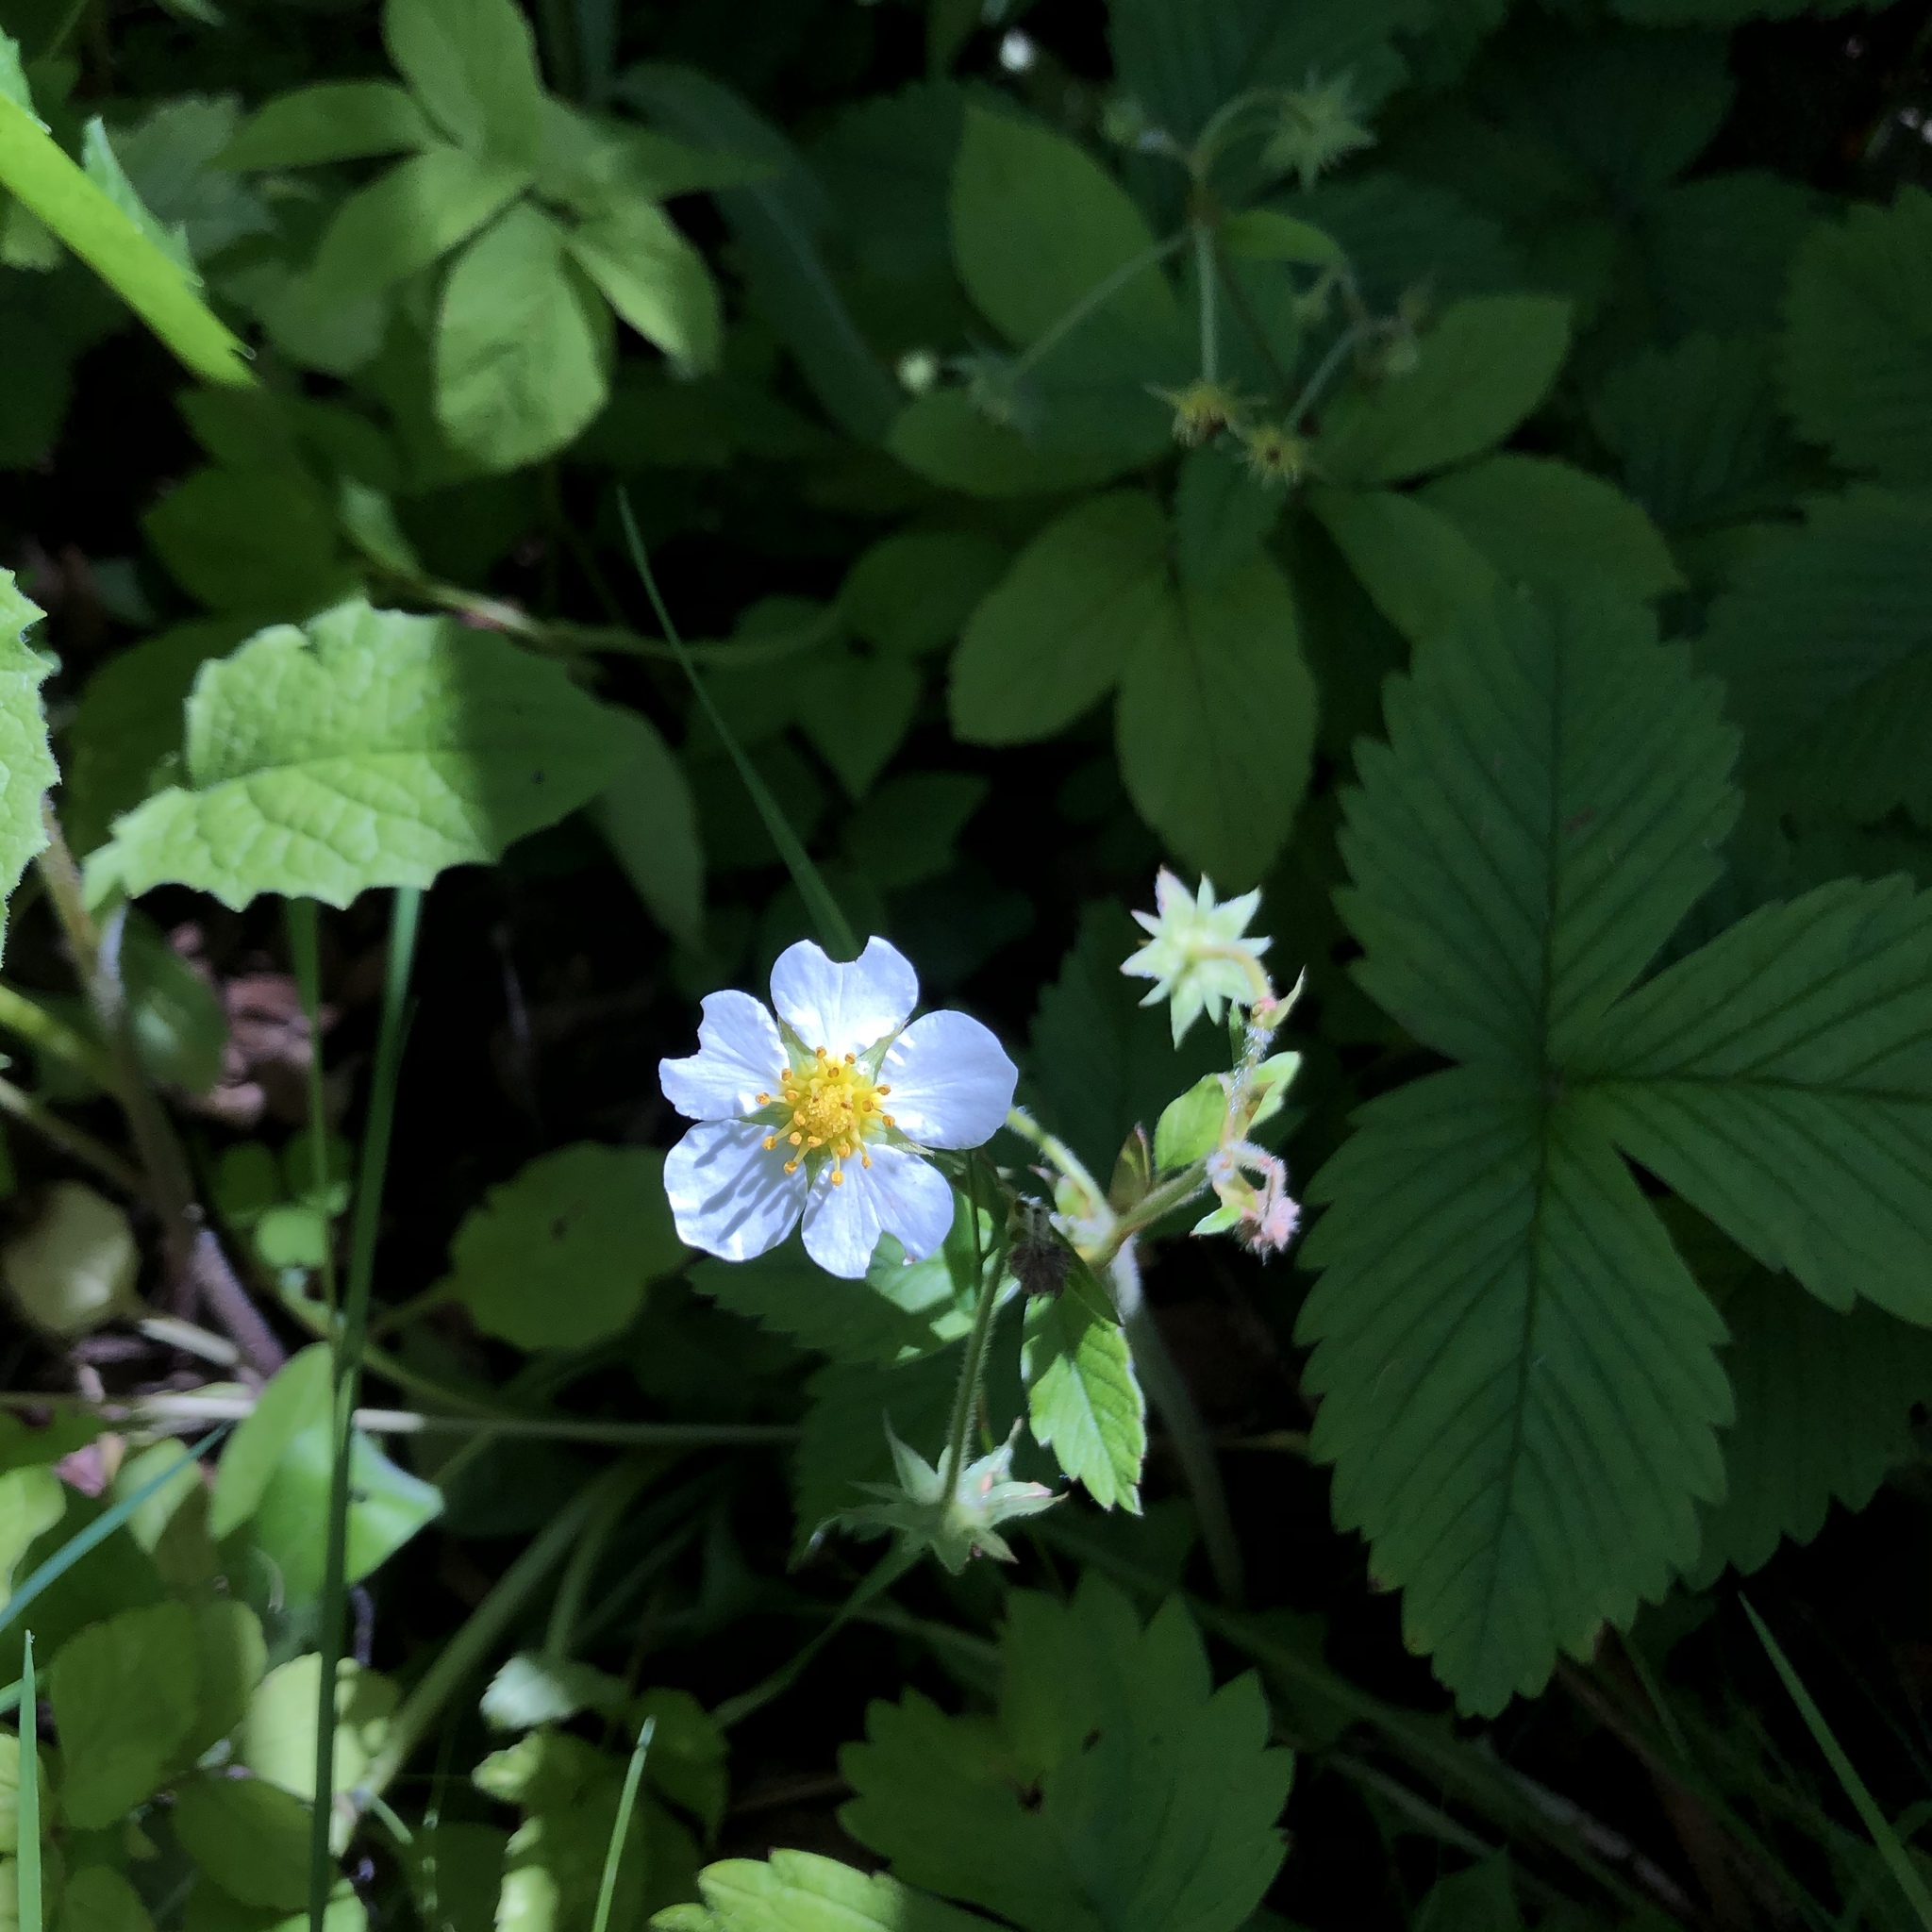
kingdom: Plantae
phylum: Tracheophyta
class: Magnoliopsida
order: Rosales
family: Rosaceae
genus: Fragaria
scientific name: Fragaria vesca
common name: Wild strawberry
